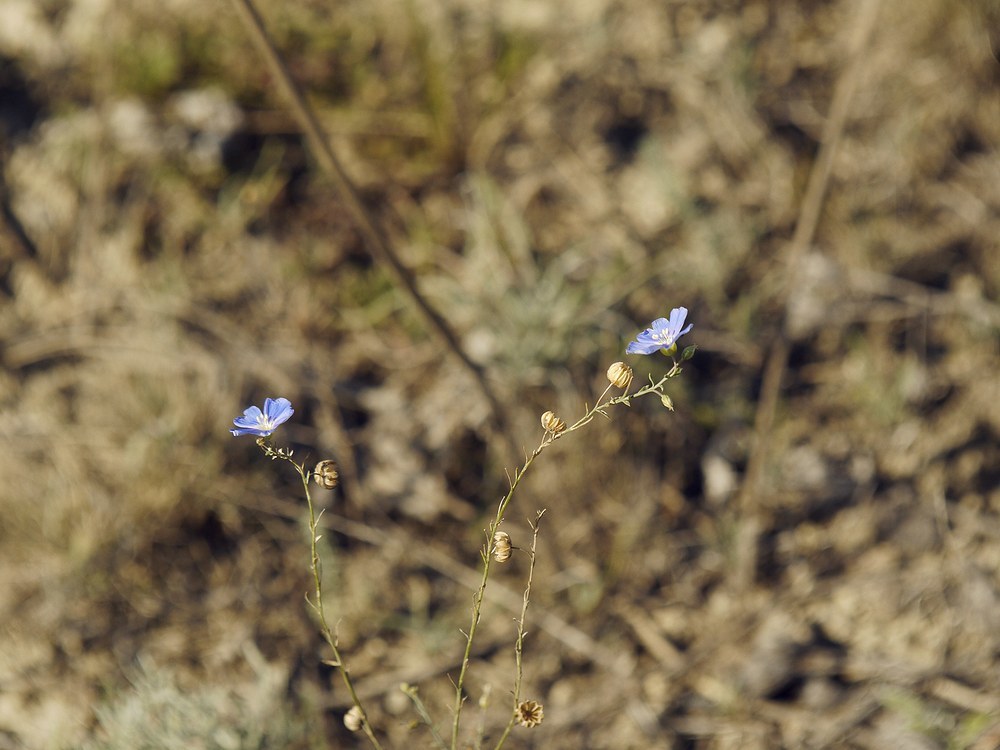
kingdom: Plantae
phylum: Tracheophyta
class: Magnoliopsida
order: Malpighiales
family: Linaceae
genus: Linum
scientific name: Linum austriacum
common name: Austrian flax
